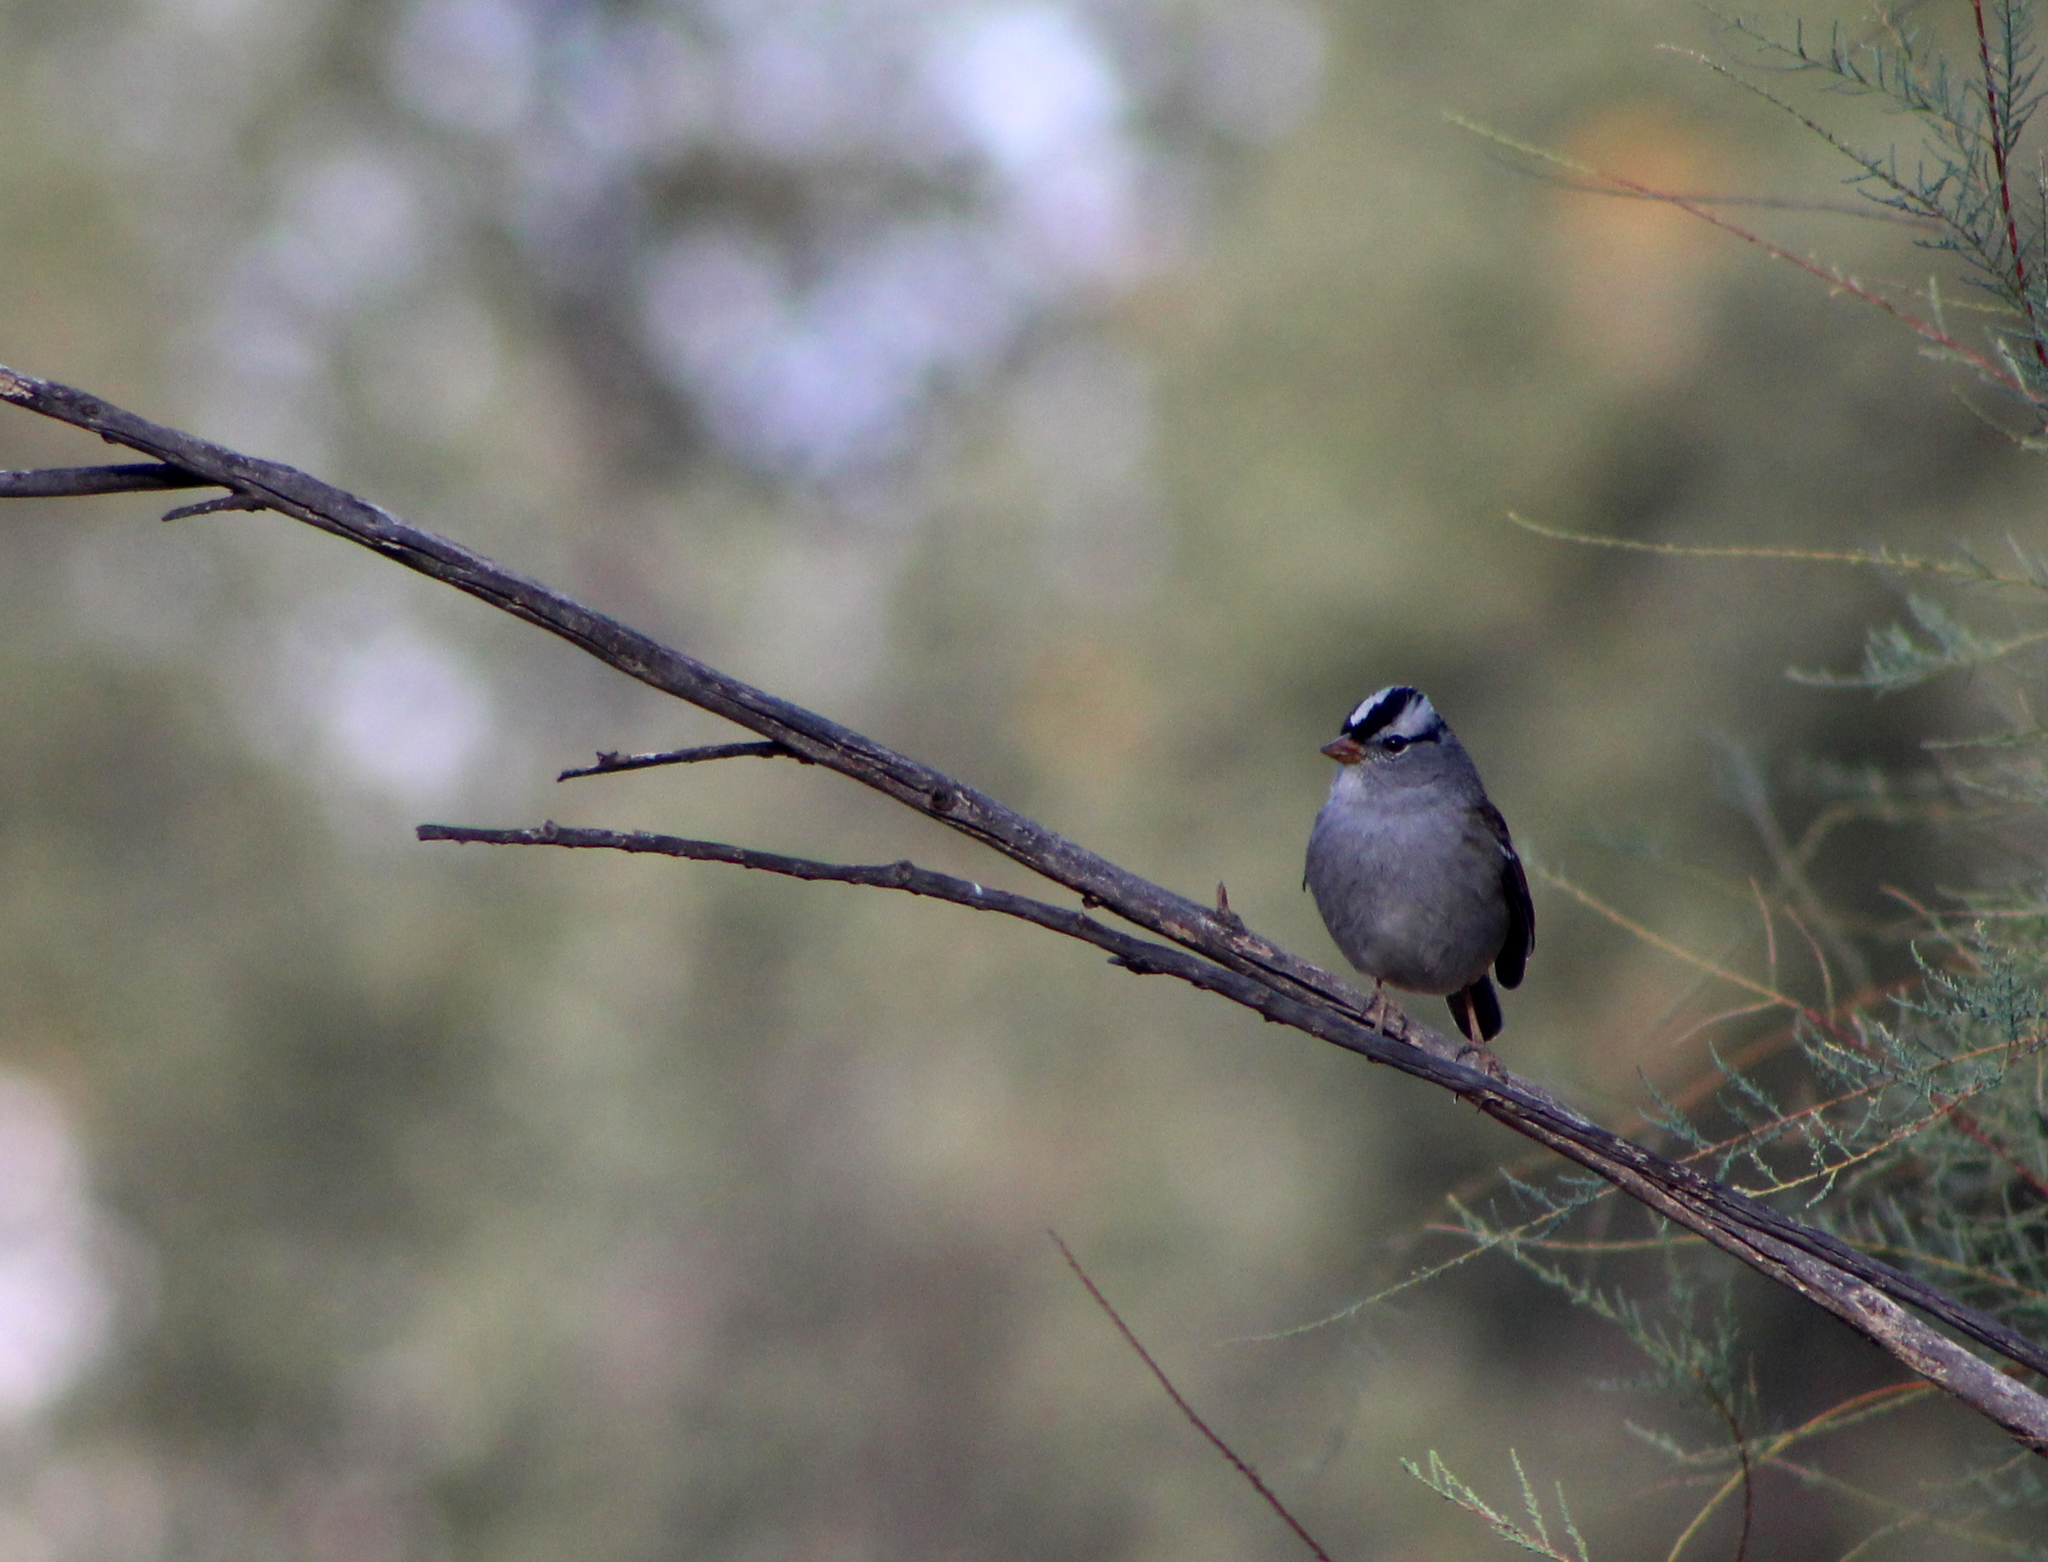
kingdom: Animalia
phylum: Chordata
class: Aves
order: Passeriformes
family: Passerellidae
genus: Zonotrichia
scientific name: Zonotrichia leucophrys
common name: White-crowned sparrow
